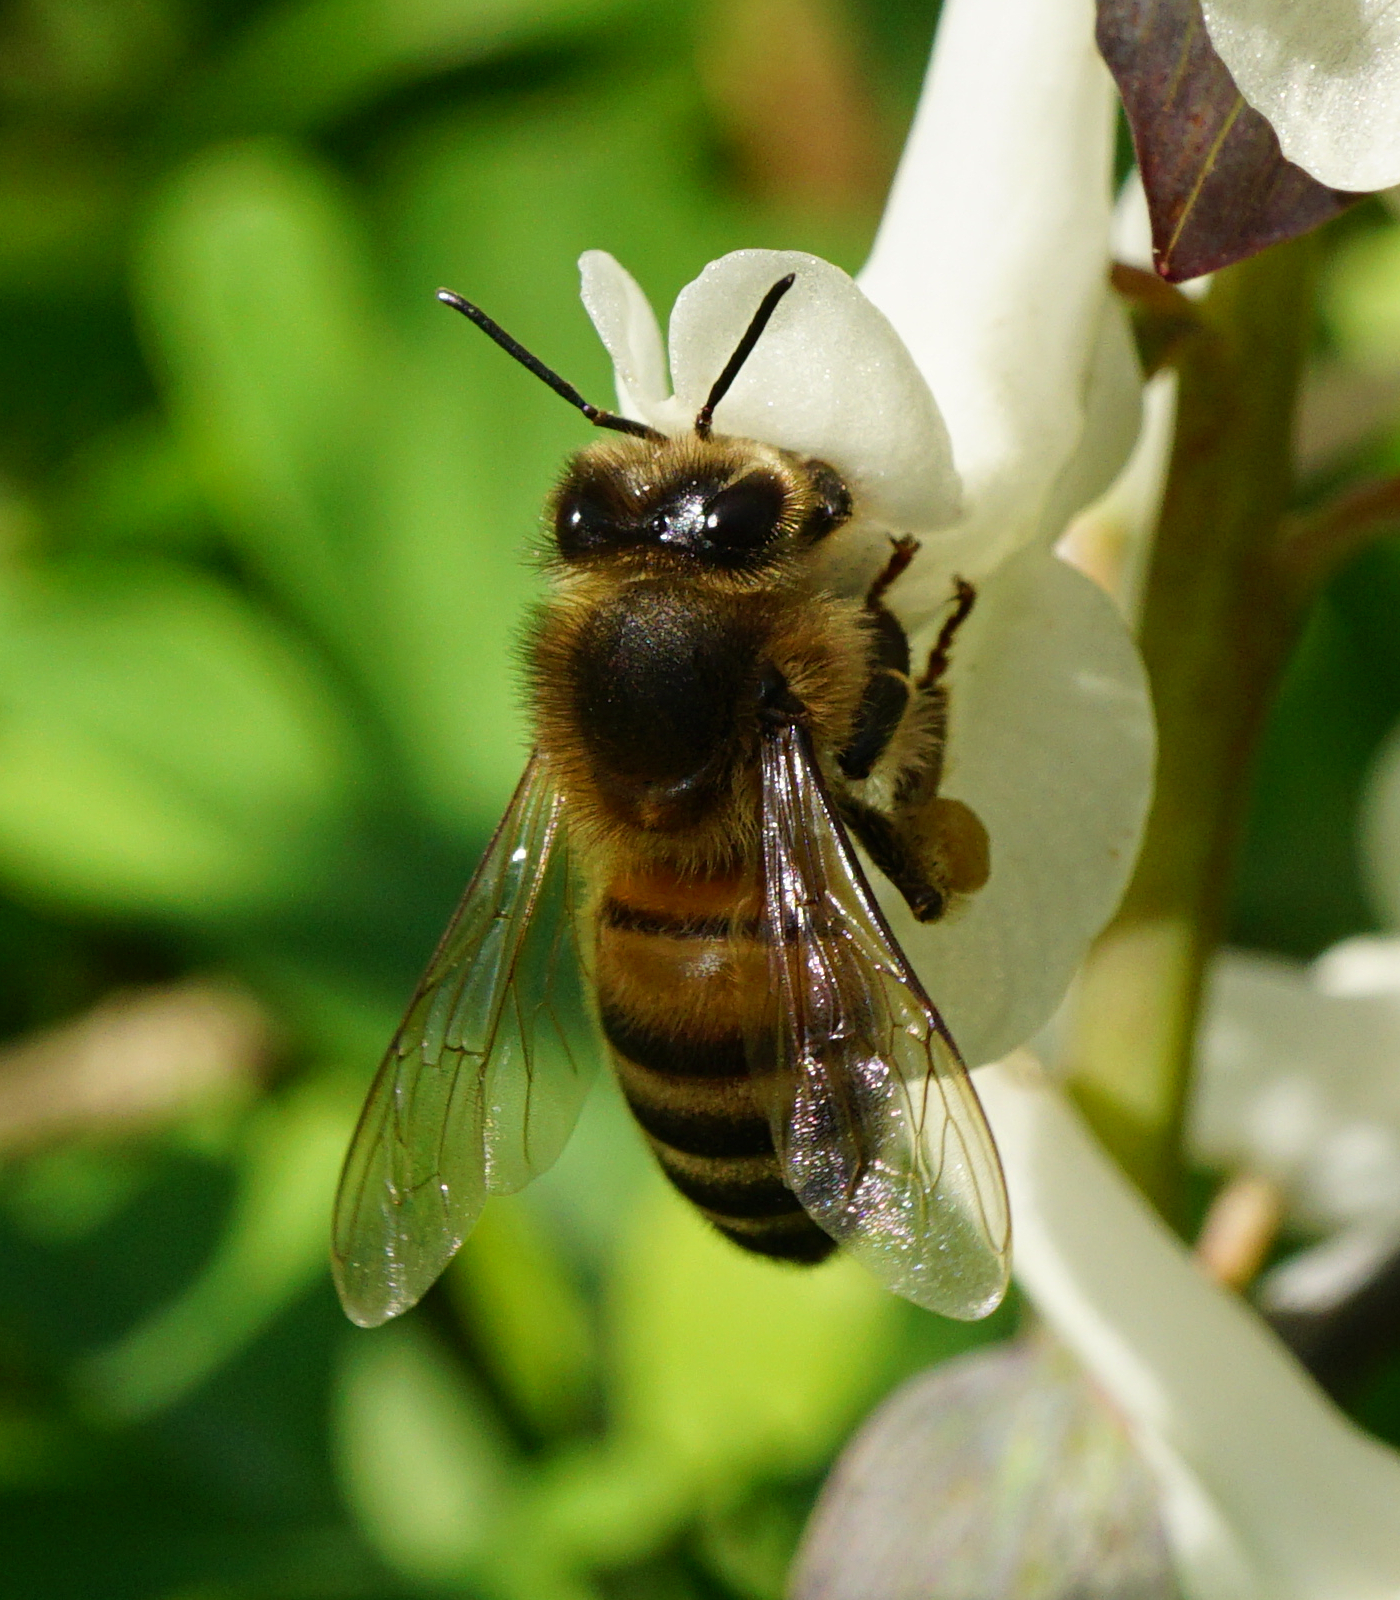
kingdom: Animalia
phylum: Arthropoda
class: Insecta
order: Hymenoptera
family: Apidae
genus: Apis
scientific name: Apis mellifera
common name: Honey bee
